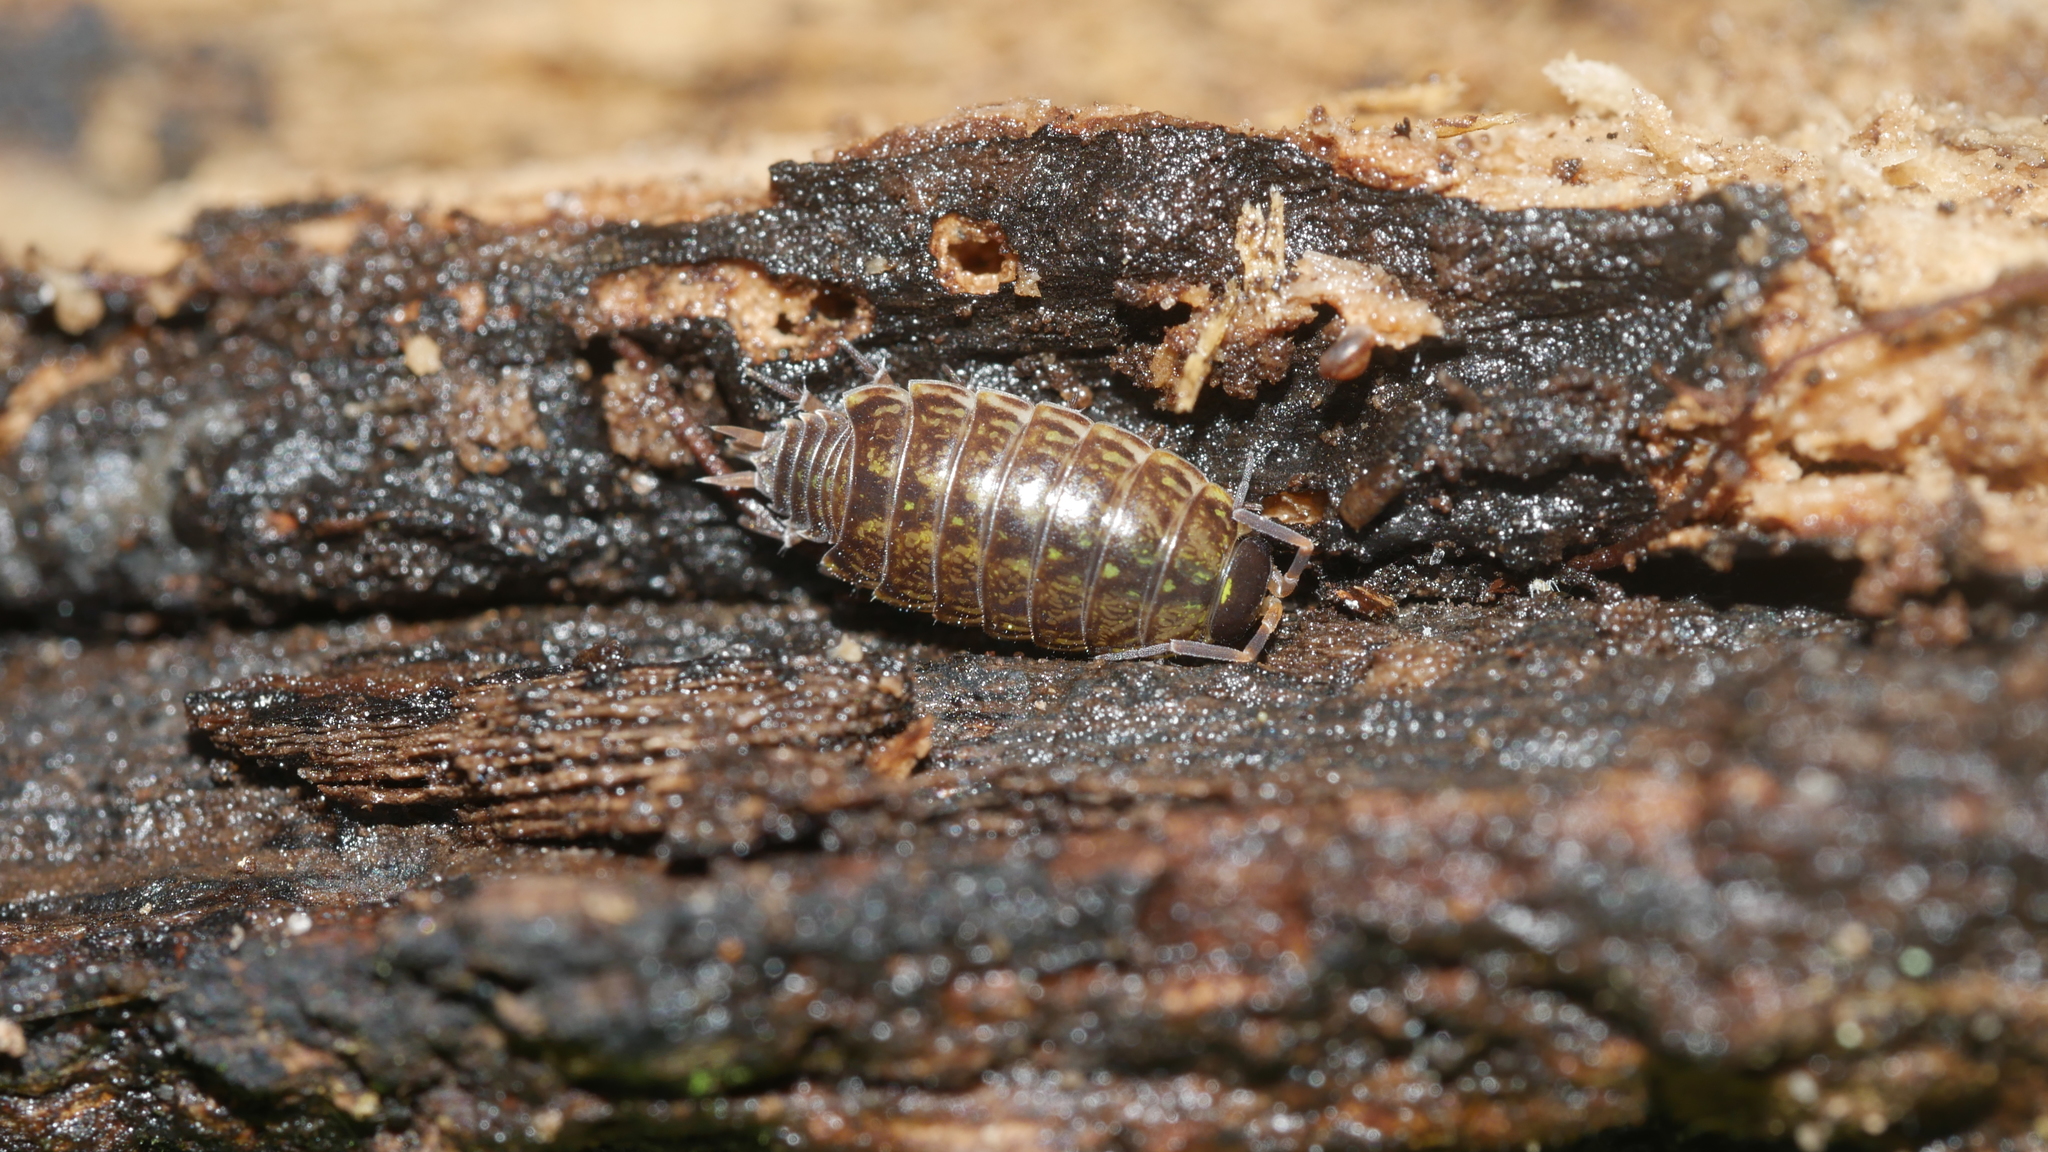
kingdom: Animalia
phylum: Arthropoda
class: Malacostraca
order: Isopoda
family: Philosciidae
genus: Philoscia
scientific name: Philoscia muscorum
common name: Common striped woodlouse
